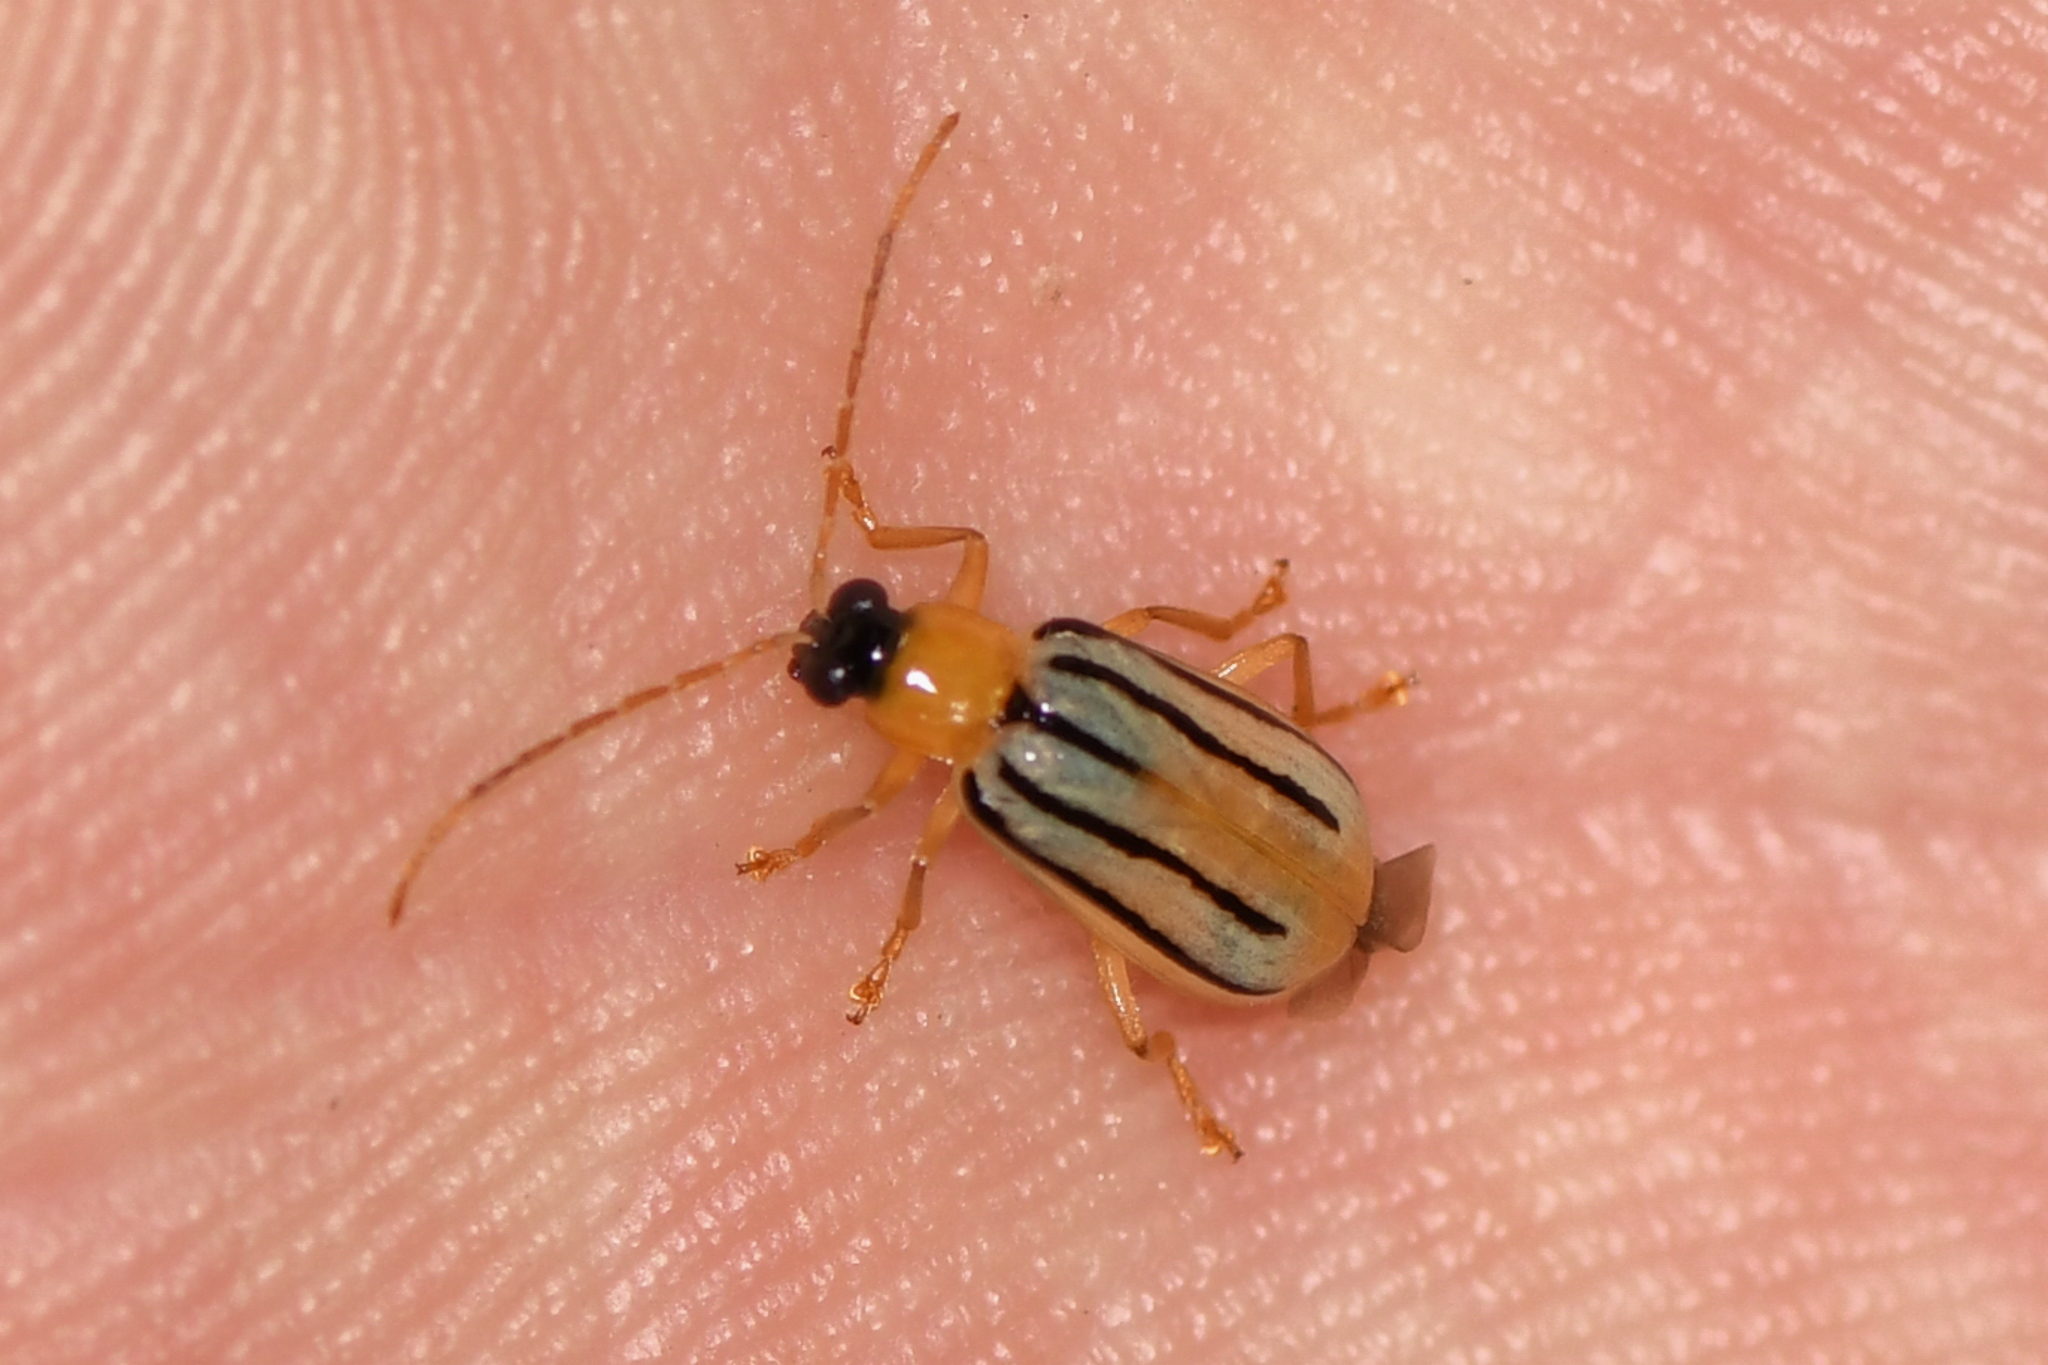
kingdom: Animalia
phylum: Arthropoda
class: Insecta
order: Coleoptera
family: Chrysomelidae
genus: Diabrotica
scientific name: Diabrotica
